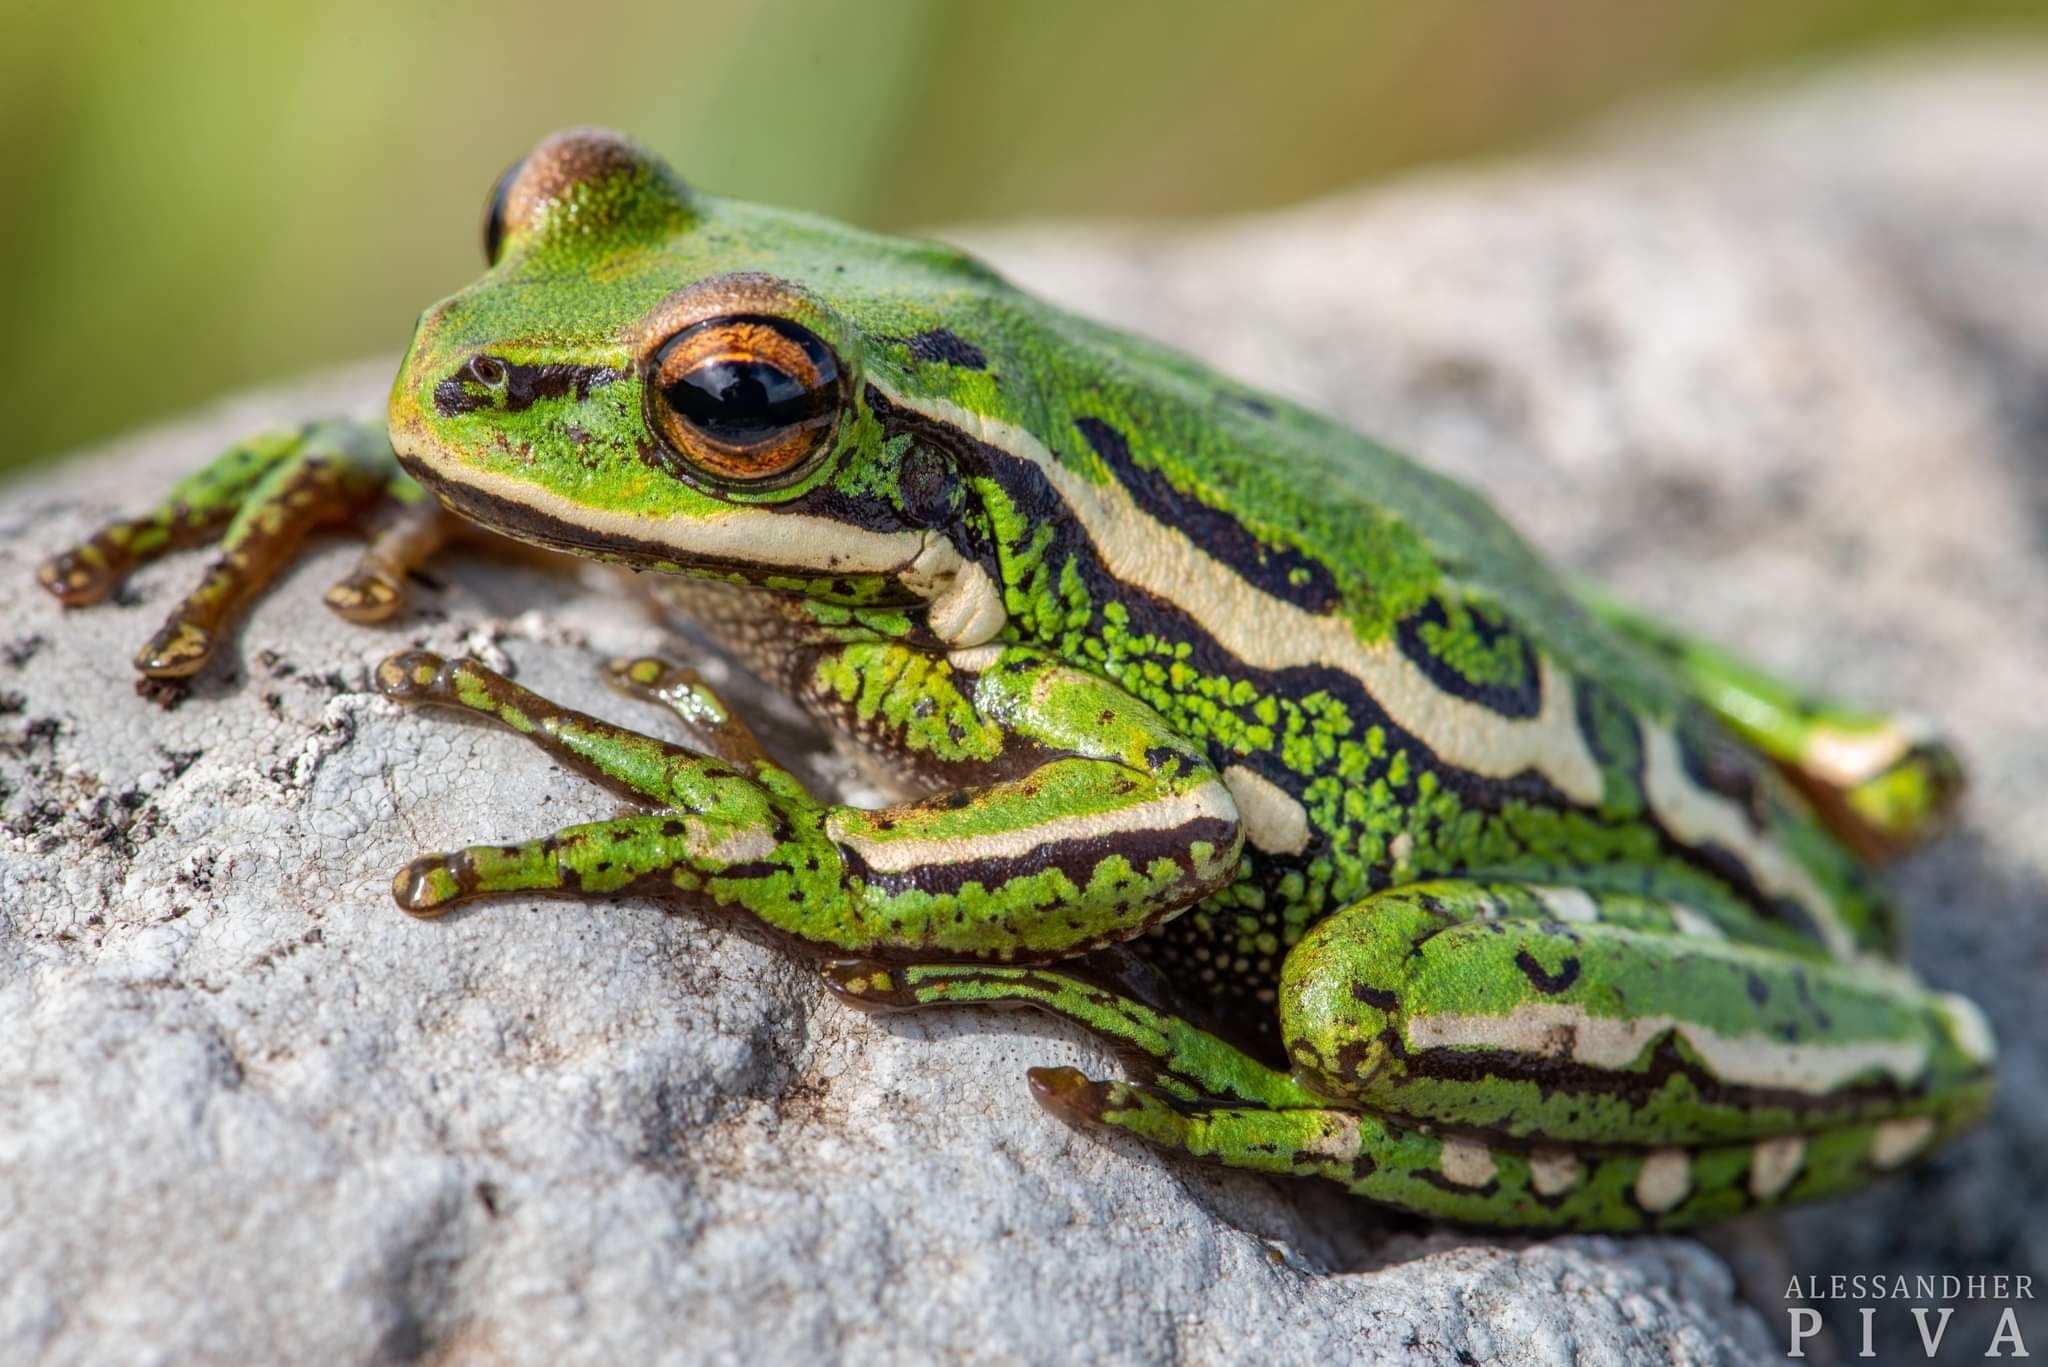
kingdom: Animalia
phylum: Chordata
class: Amphibia
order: Anura
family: Hylidae
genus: Boana
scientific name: Boana joaquini
